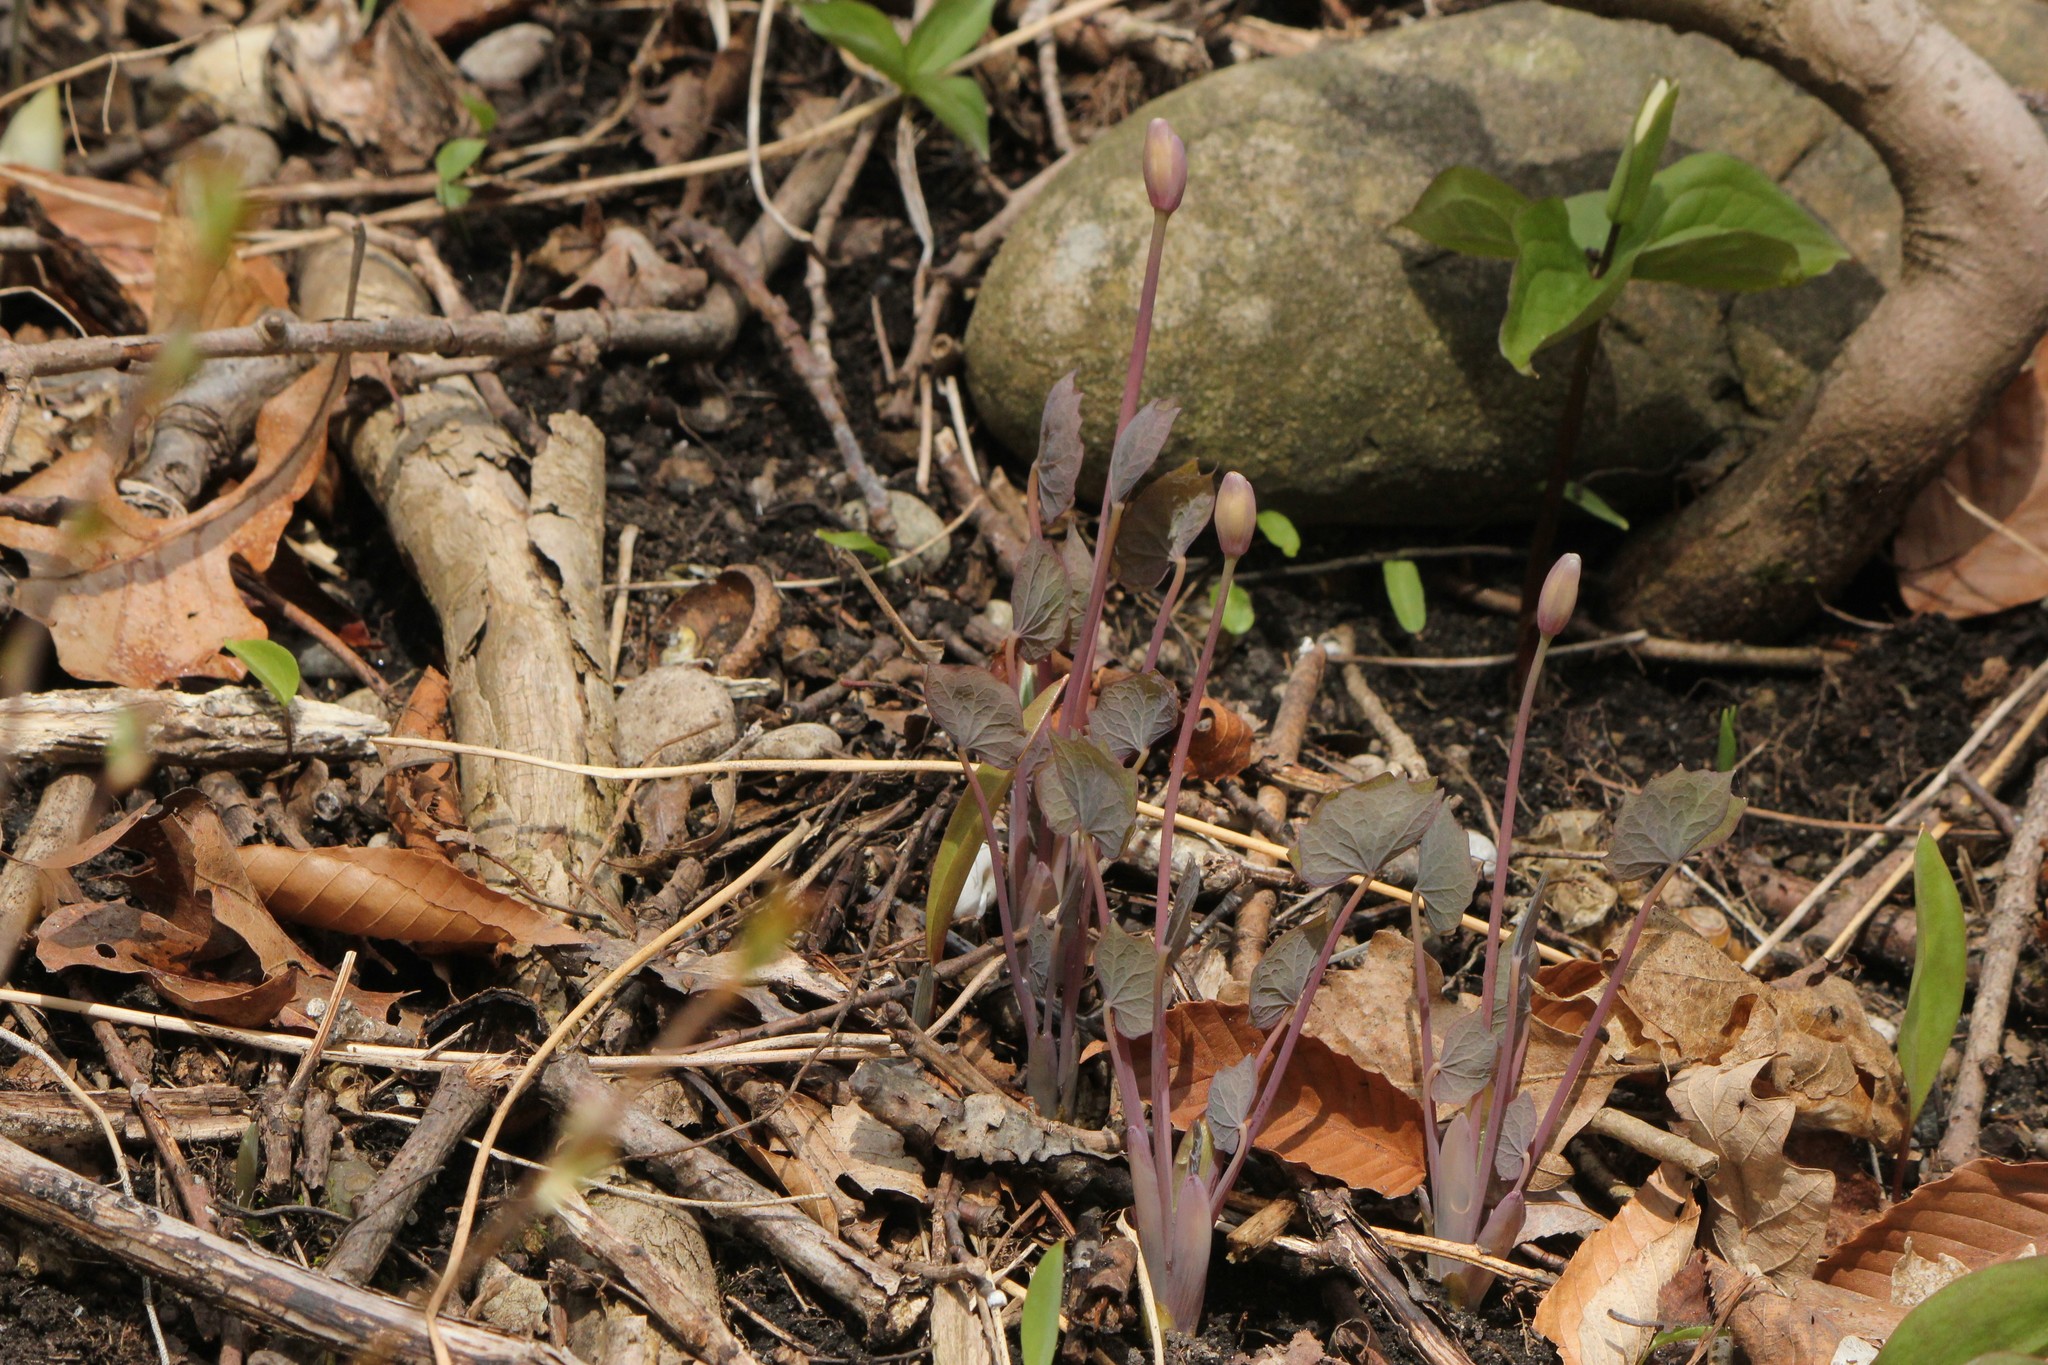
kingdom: Plantae
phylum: Tracheophyta
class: Magnoliopsida
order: Ranunculales
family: Berberidaceae
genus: Jeffersonia
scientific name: Jeffersonia diphylla
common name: Rheumatism-root
